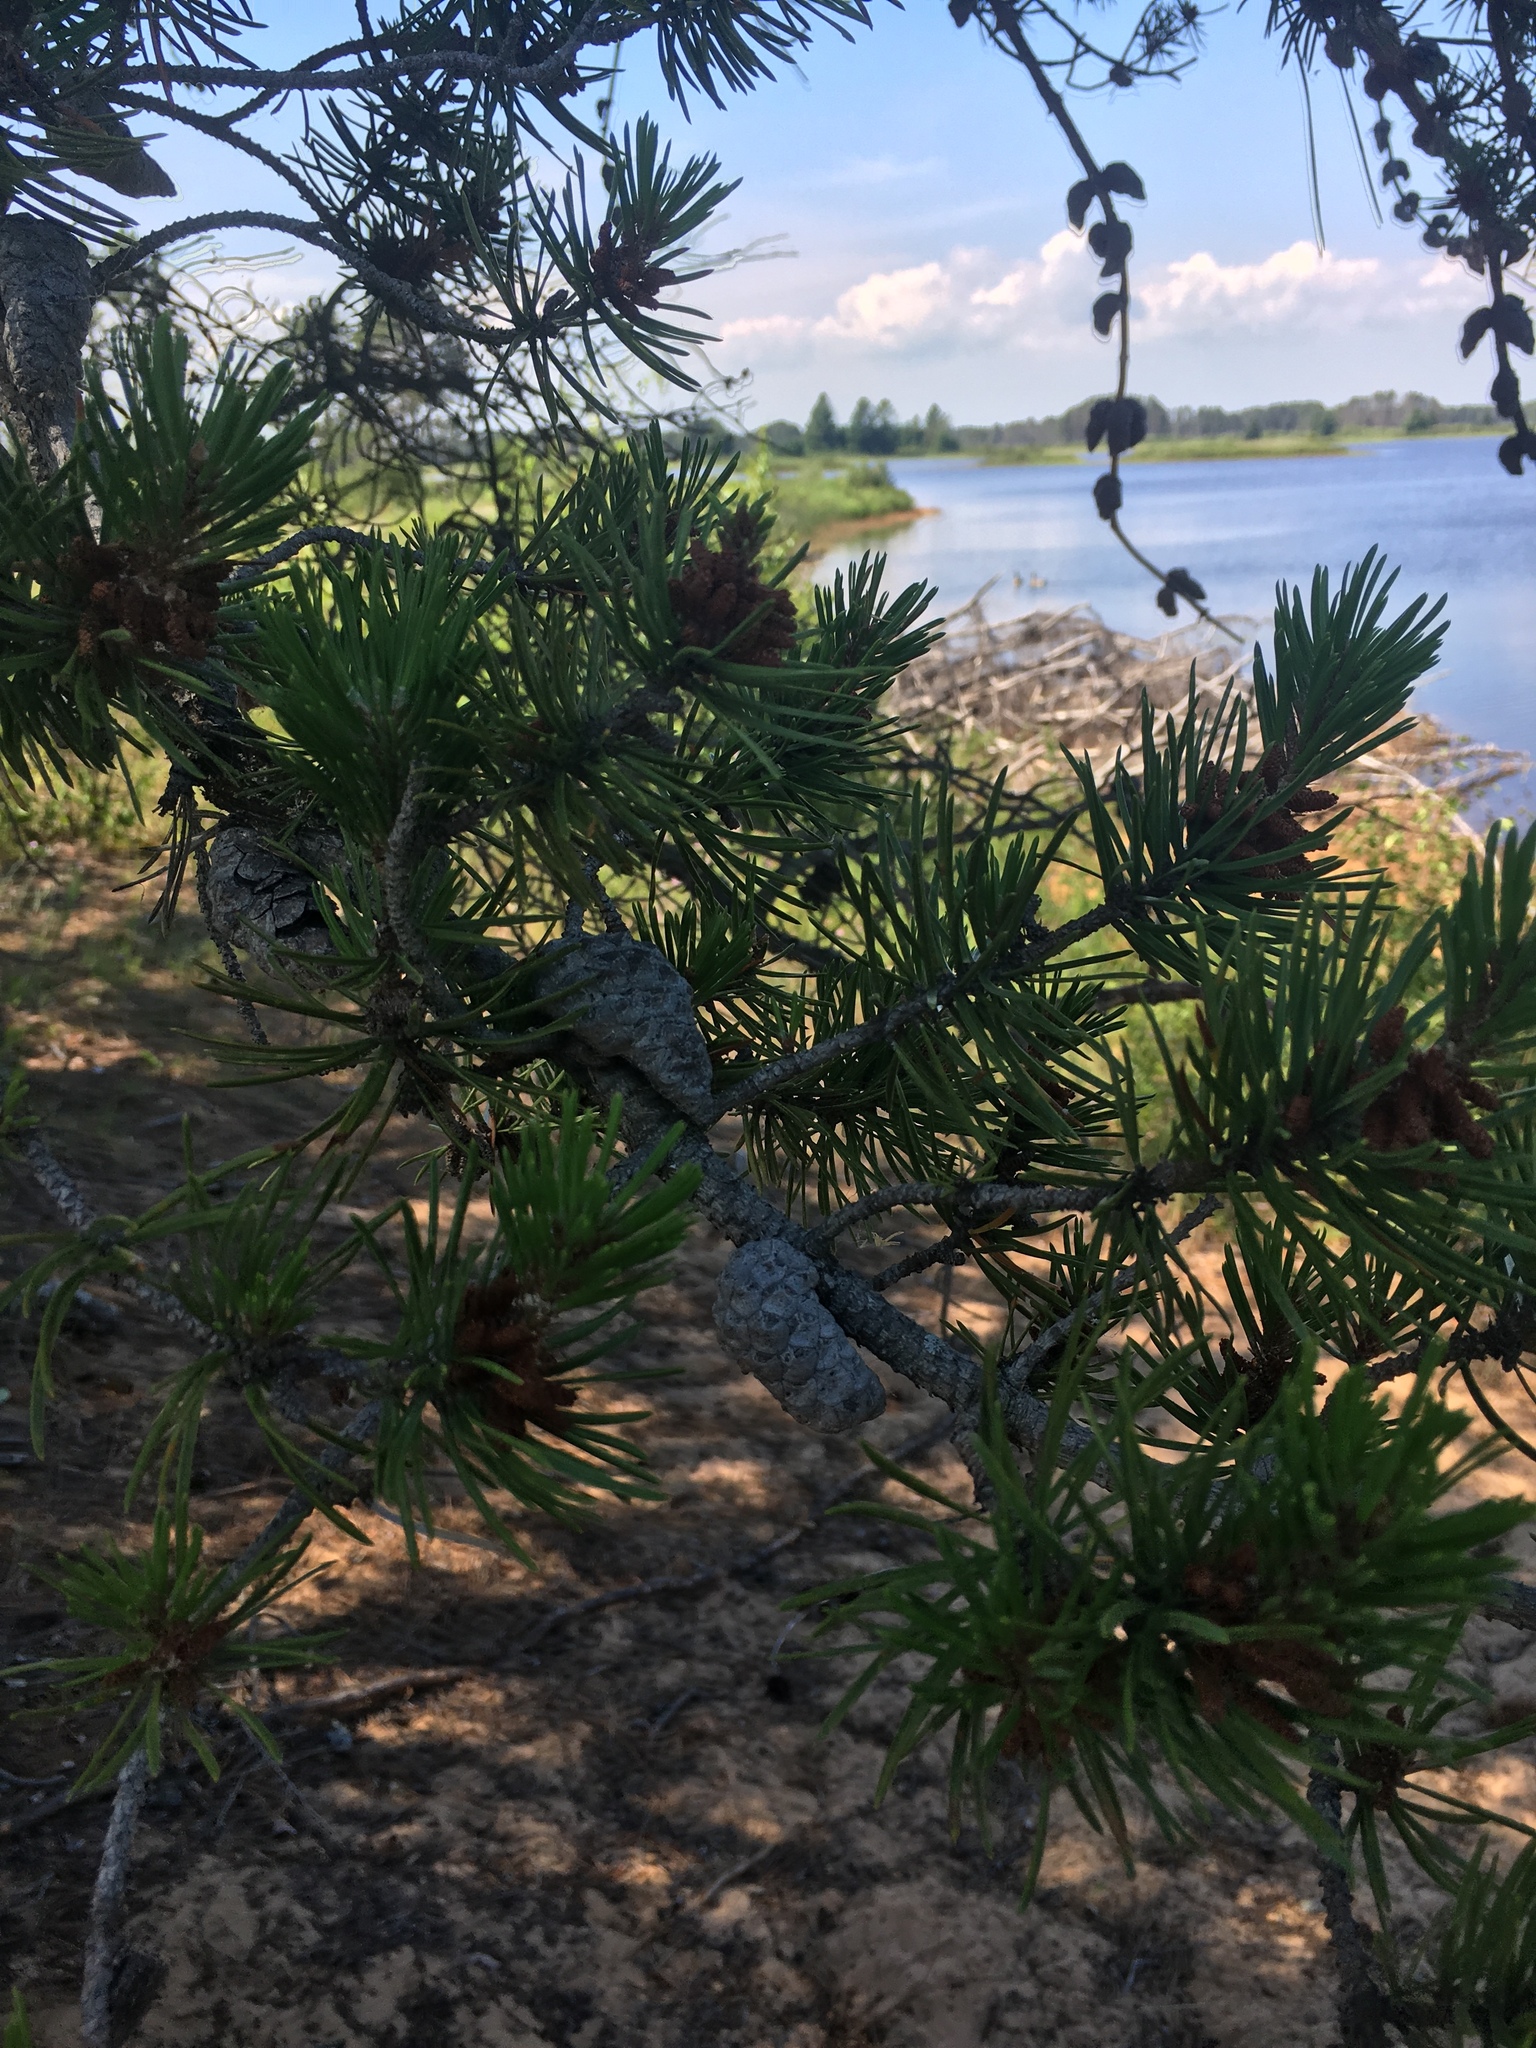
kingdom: Plantae
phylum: Tracheophyta
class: Pinopsida
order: Pinales
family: Pinaceae
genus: Pinus
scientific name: Pinus banksiana
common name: Jack pine
